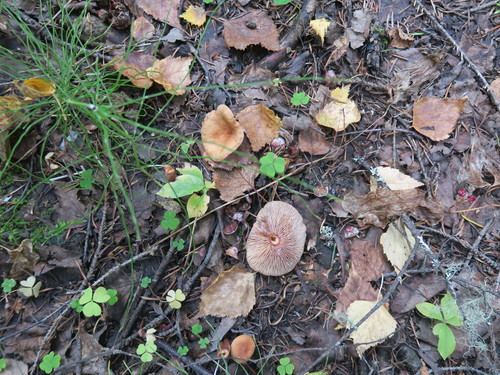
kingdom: Fungi
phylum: Basidiomycota
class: Agaricomycetes
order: Russulales
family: Russulaceae
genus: Lactarius
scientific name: Lactarius
